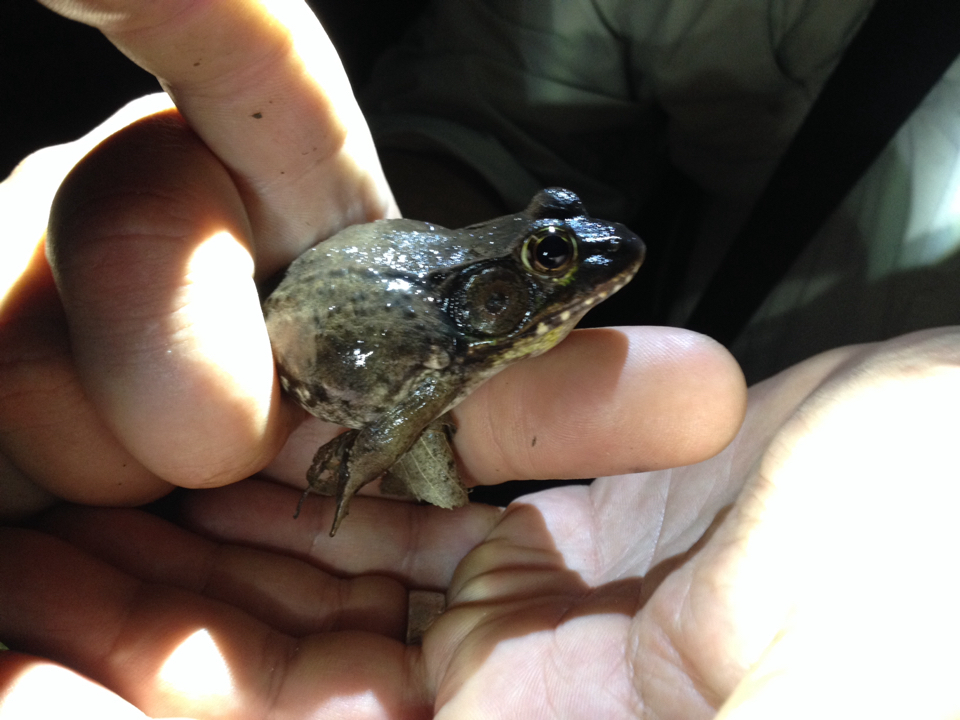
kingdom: Animalia
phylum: Chordata
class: Amphibia
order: Anura
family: Ranidae
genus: Lithobates
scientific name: Lithobates clamitans
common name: Green frog
